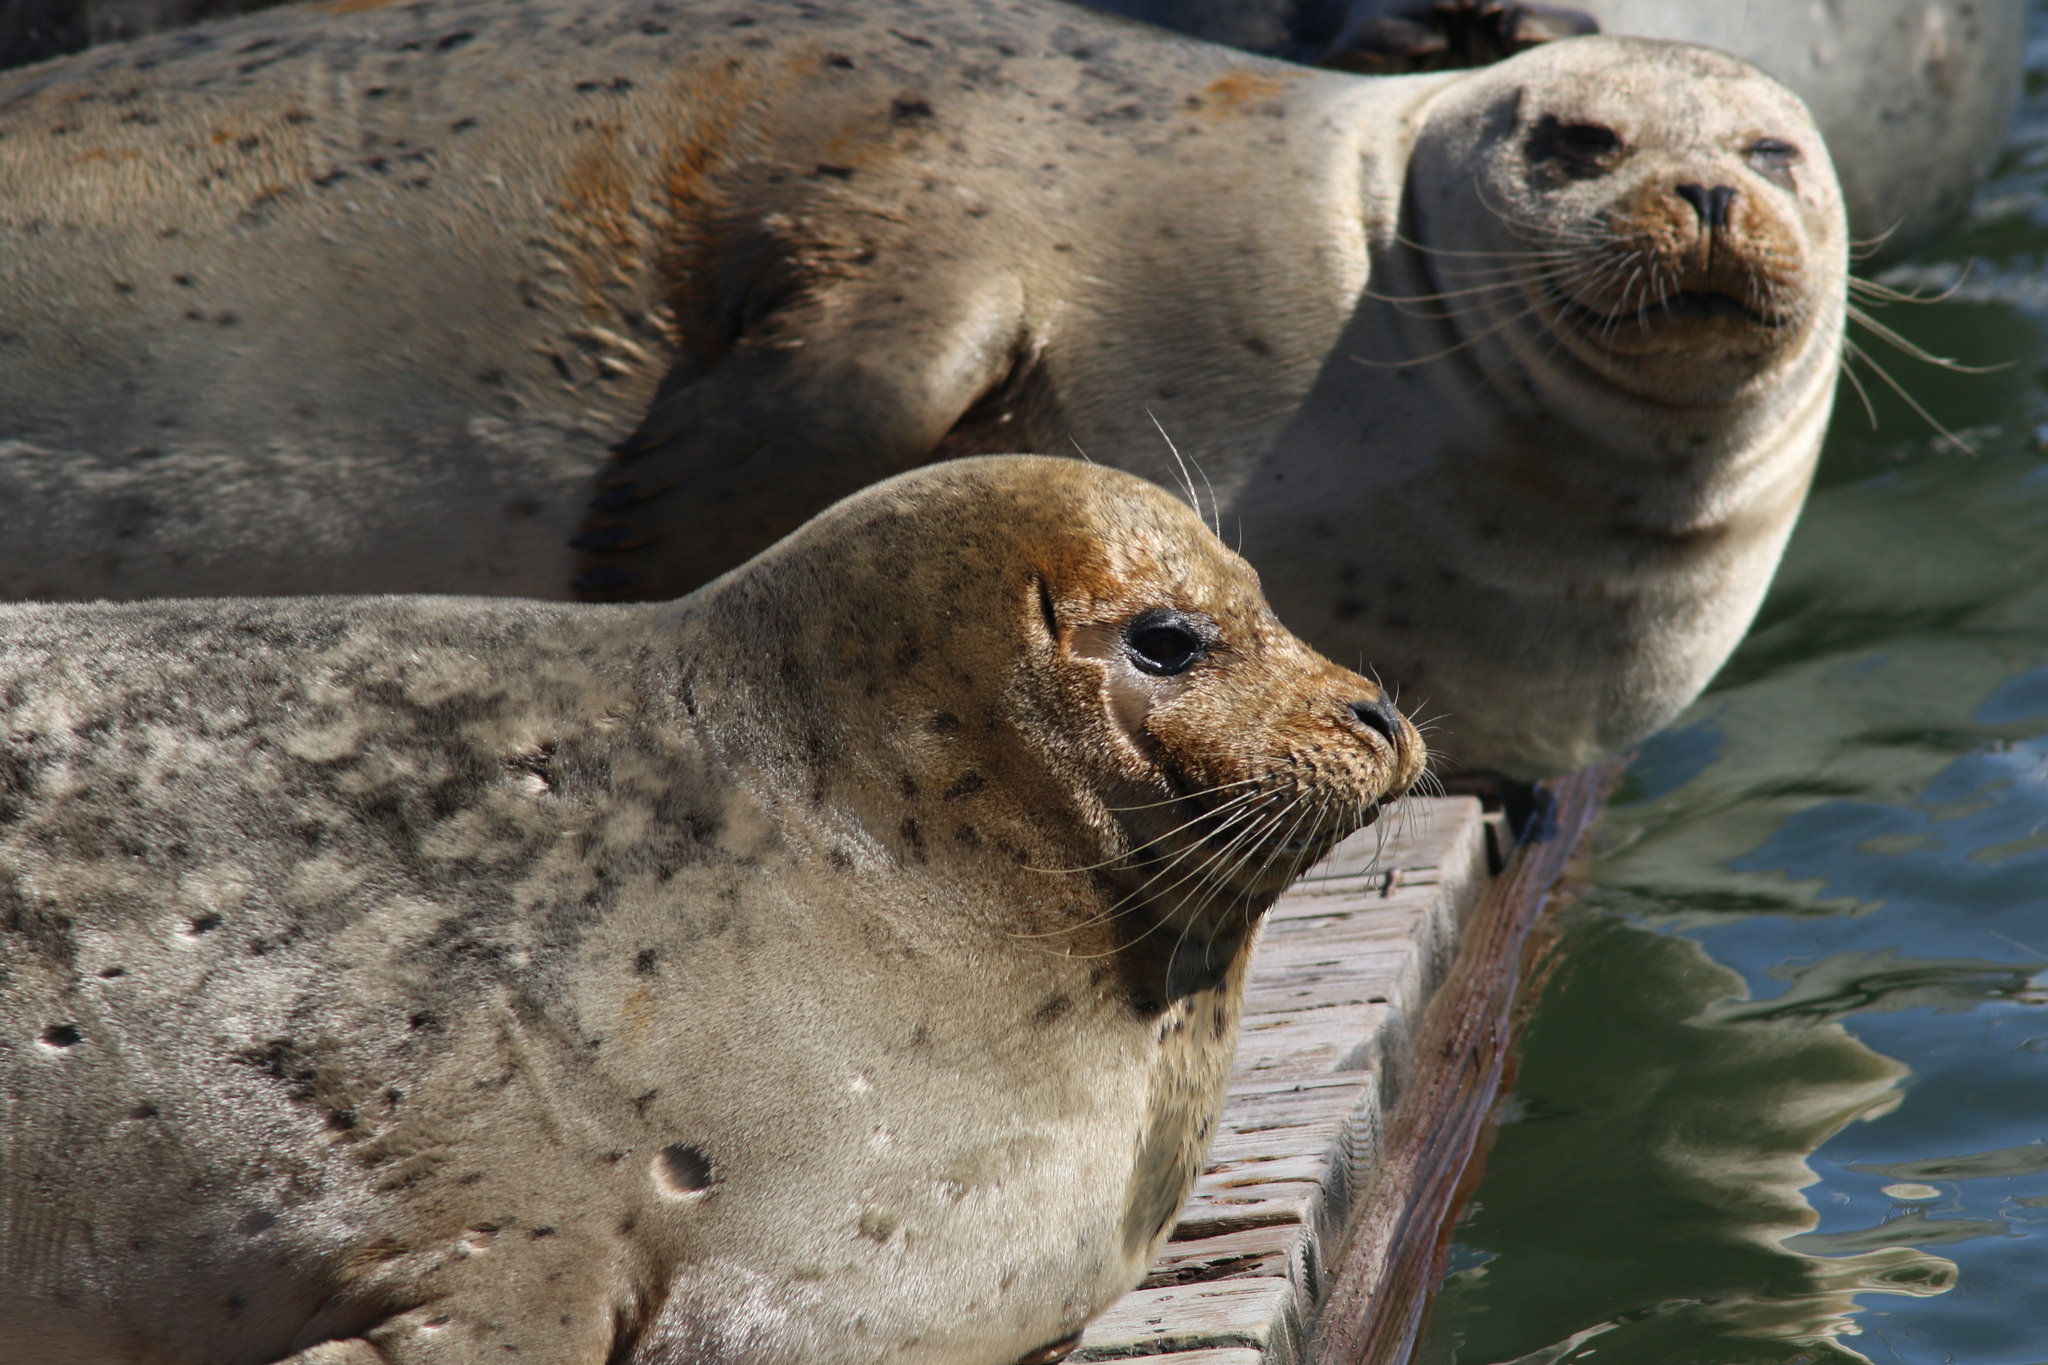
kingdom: Animalia
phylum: Chordata
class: Mammalia
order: Carnivora
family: Phocidae
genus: Phoca
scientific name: Phoca vitulina
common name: Harbor seal
